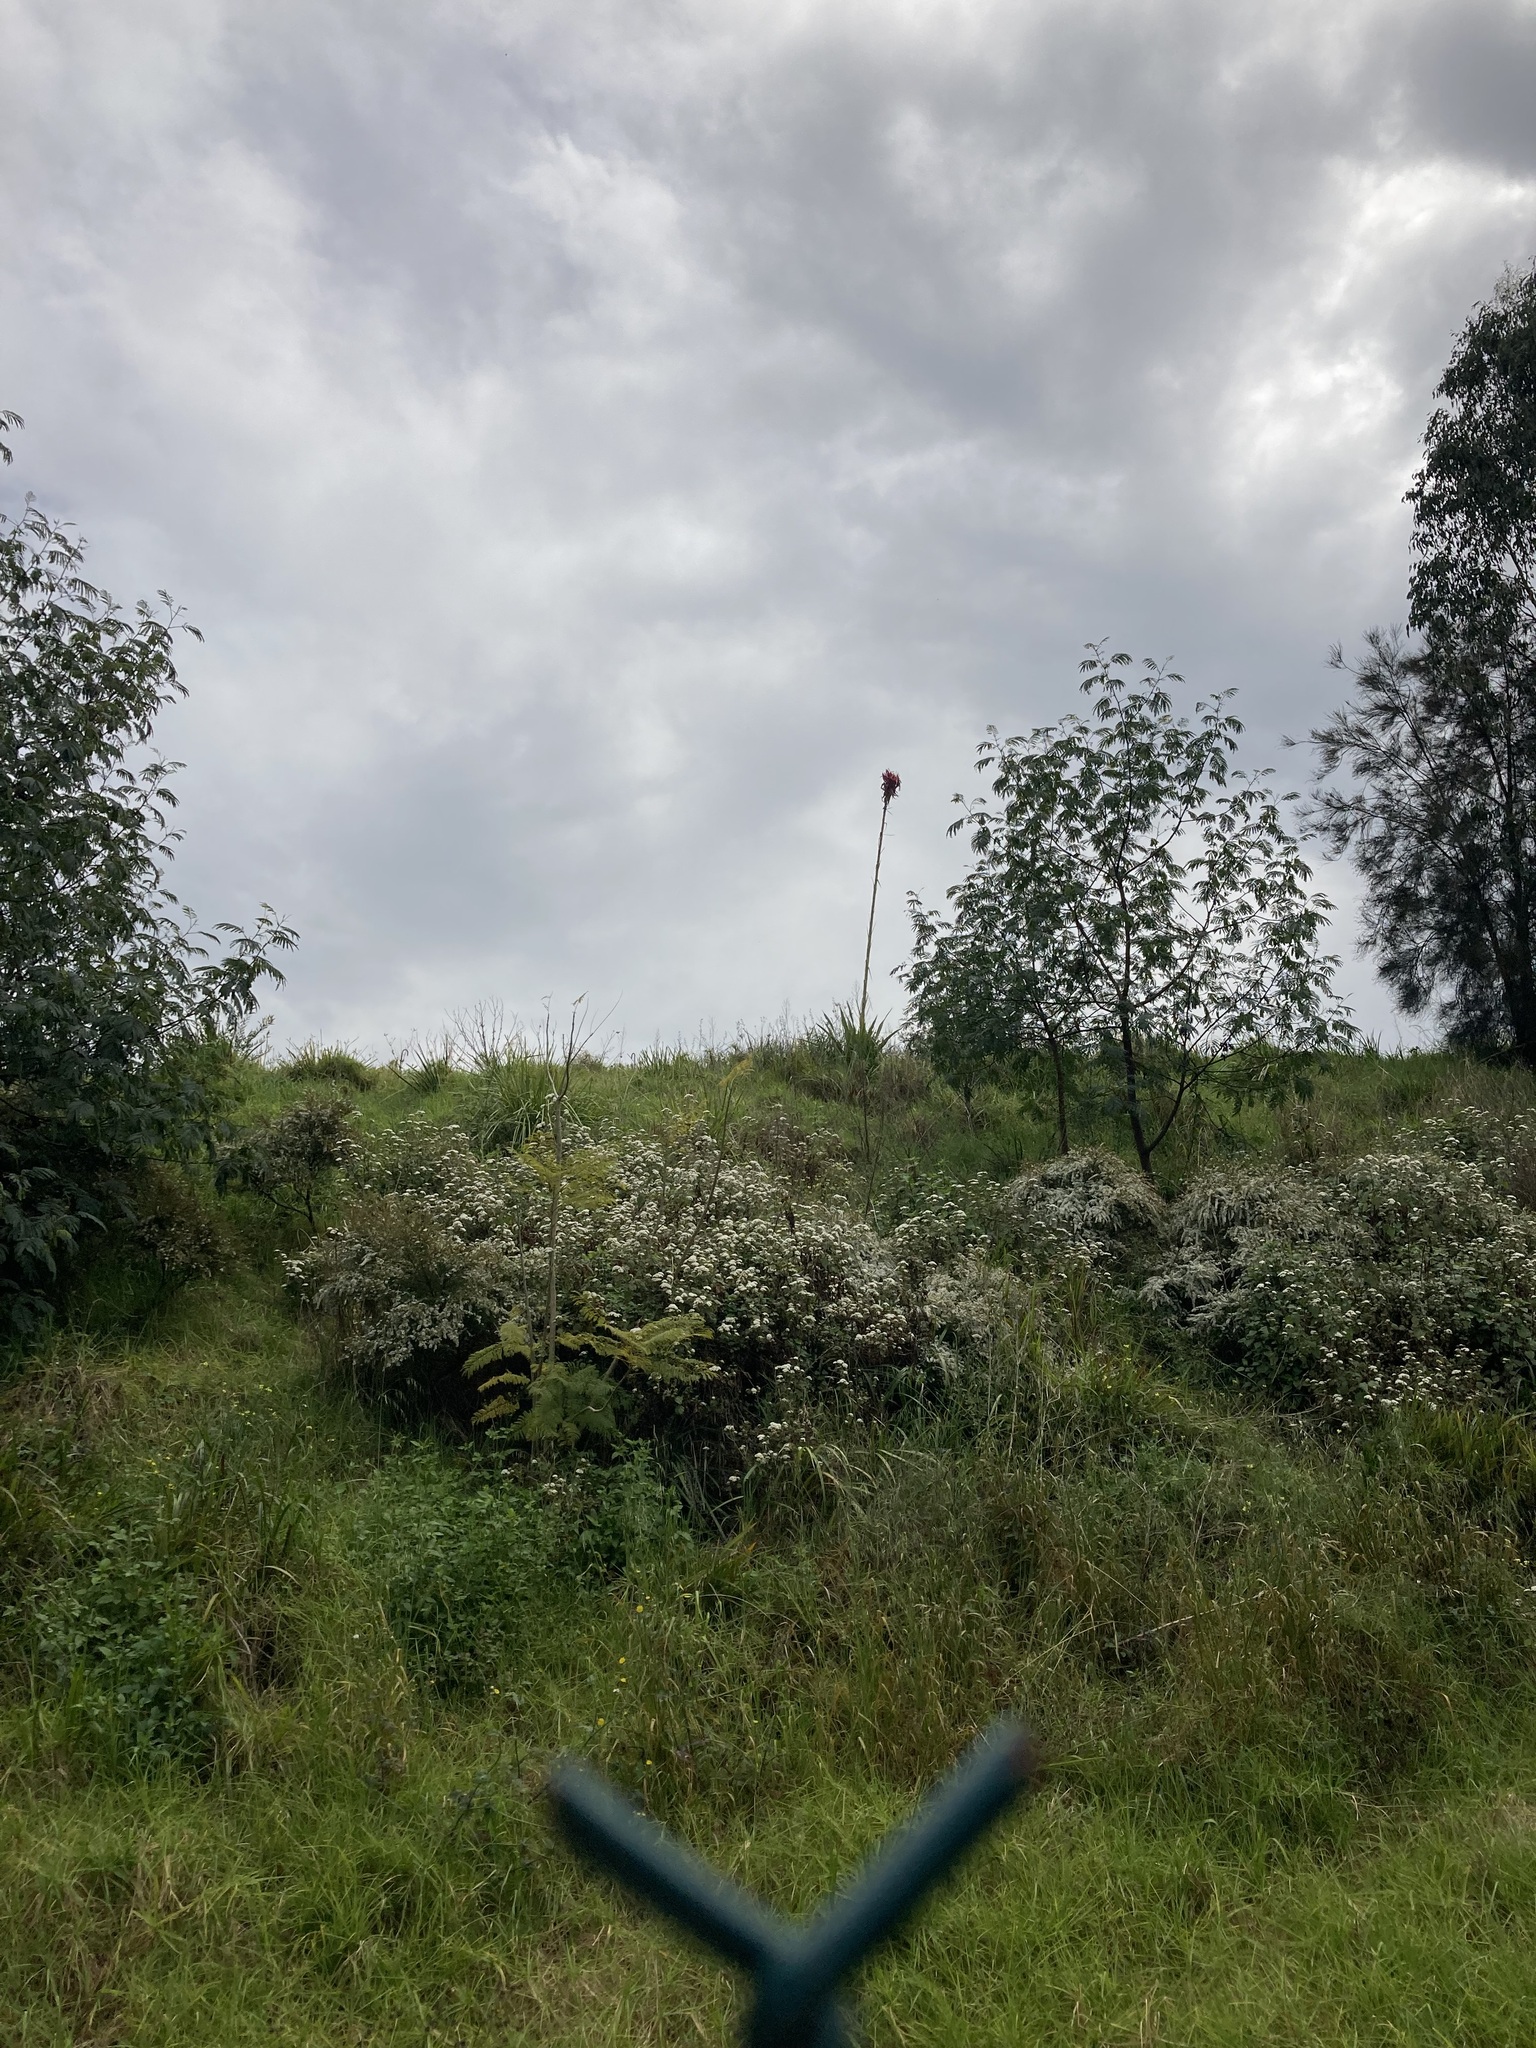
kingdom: Plantae
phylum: Tracheophyta
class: Liliopsida
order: Asparagales
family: Doryanthaceae
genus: Doryanthes
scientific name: Doryanthes excelsa
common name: Giant-lily
